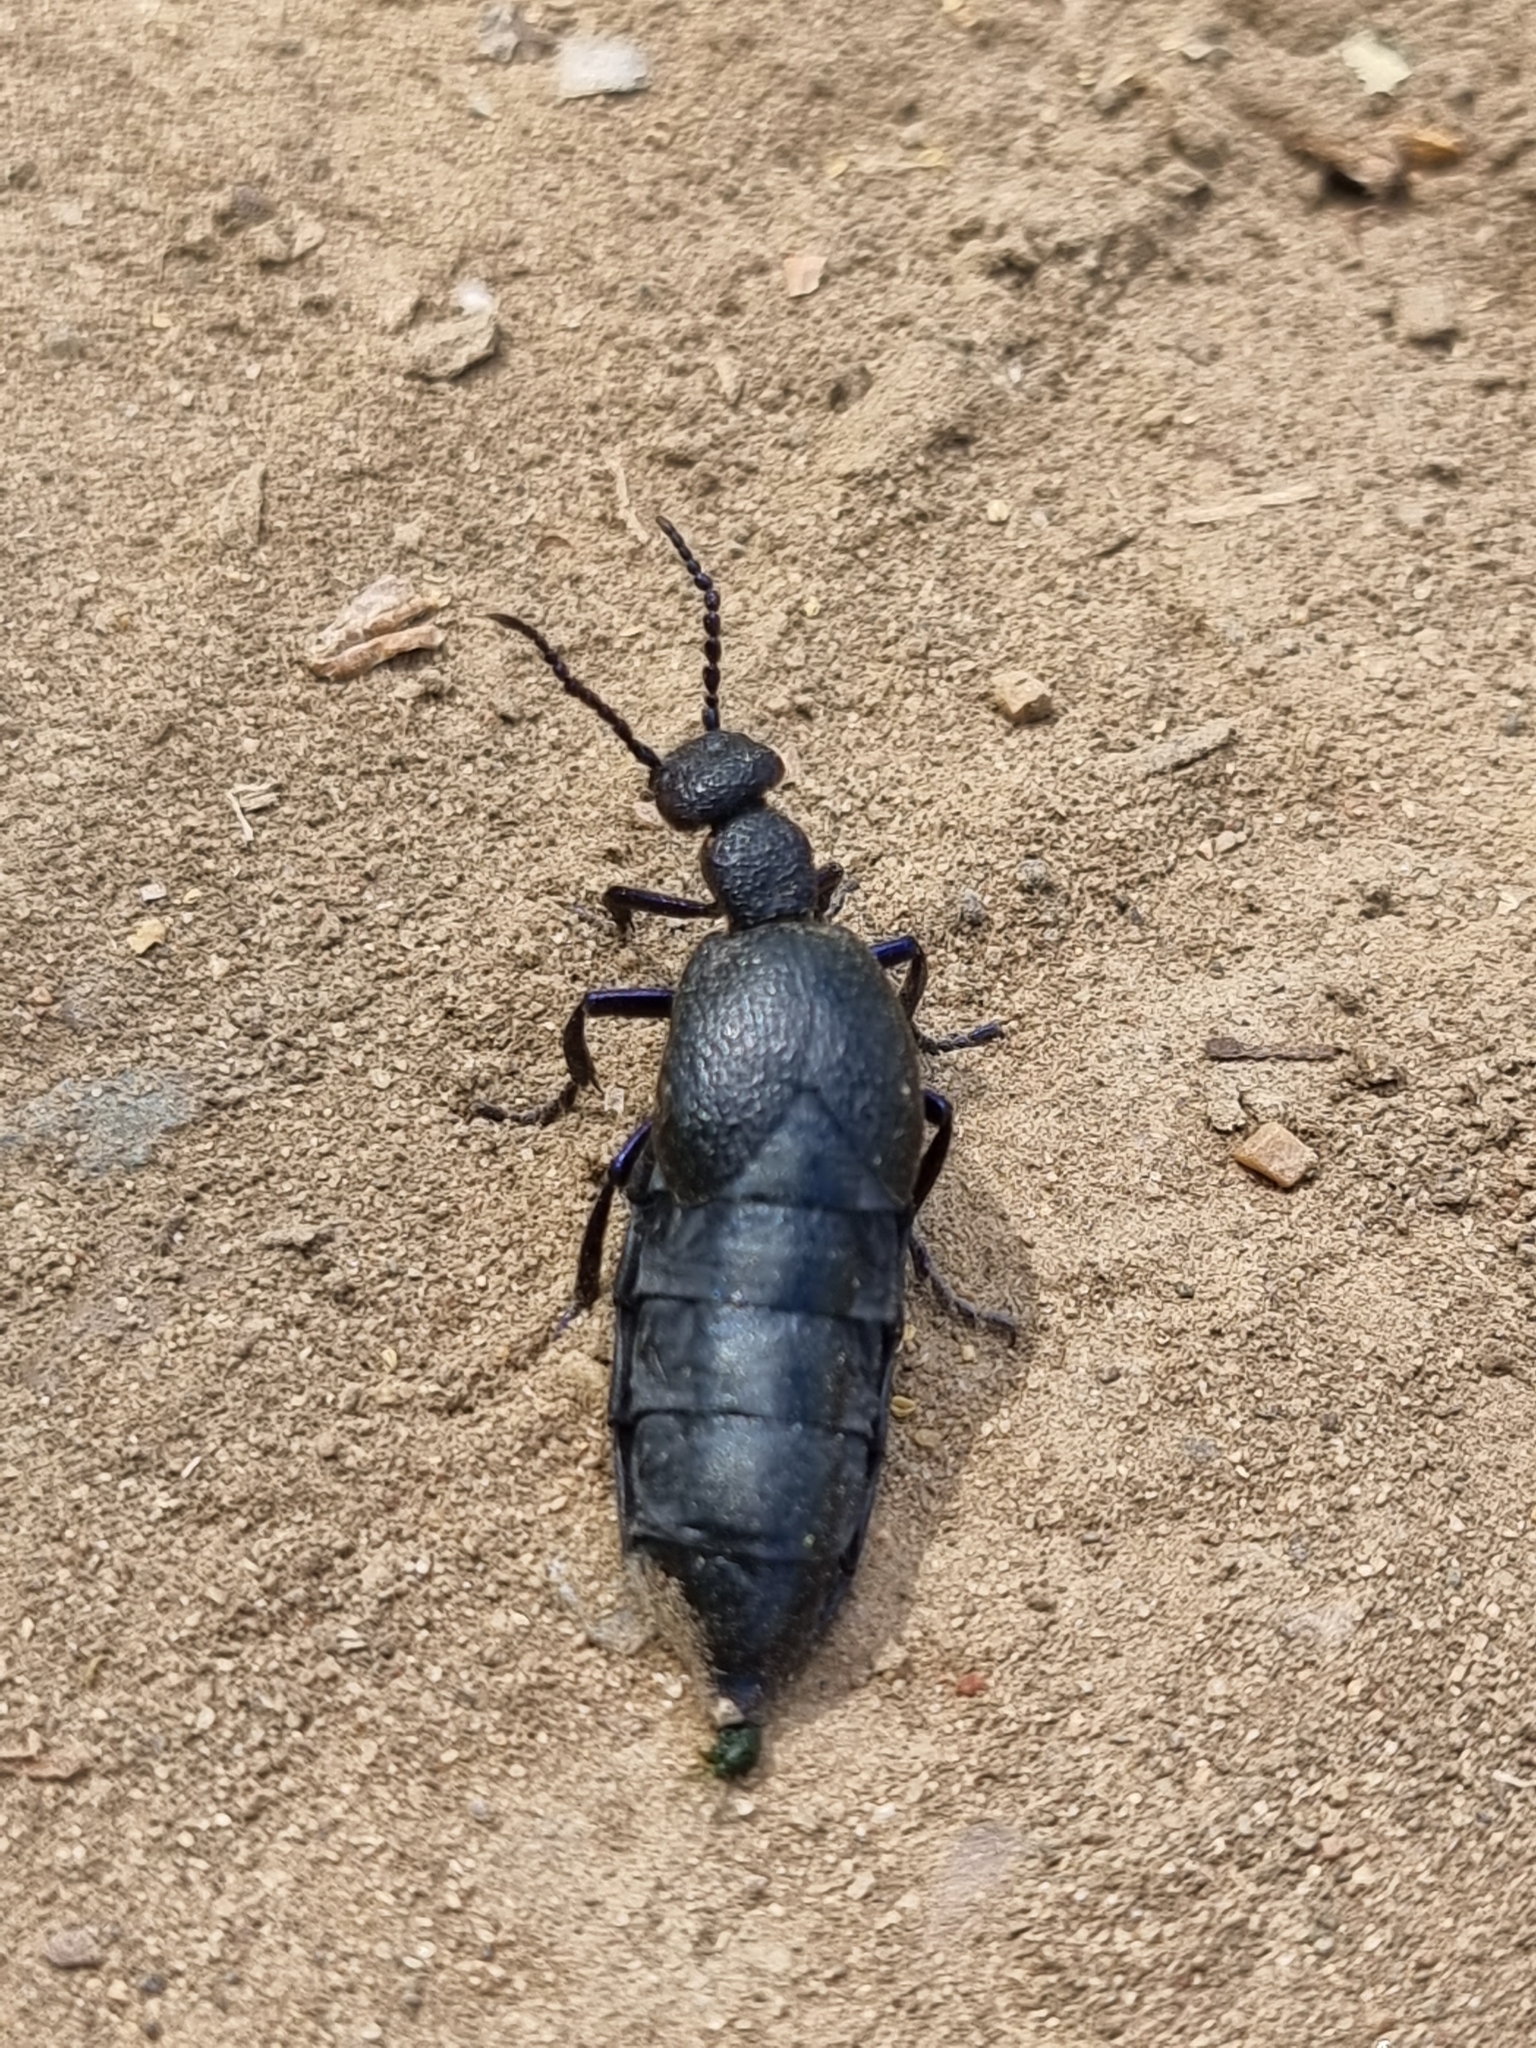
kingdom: Animalia
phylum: Arthropoda
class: Insecta
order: Coleoptera
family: Meloidae
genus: Meloe
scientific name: Meloe proscarabaeus
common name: Black oil-beetle
